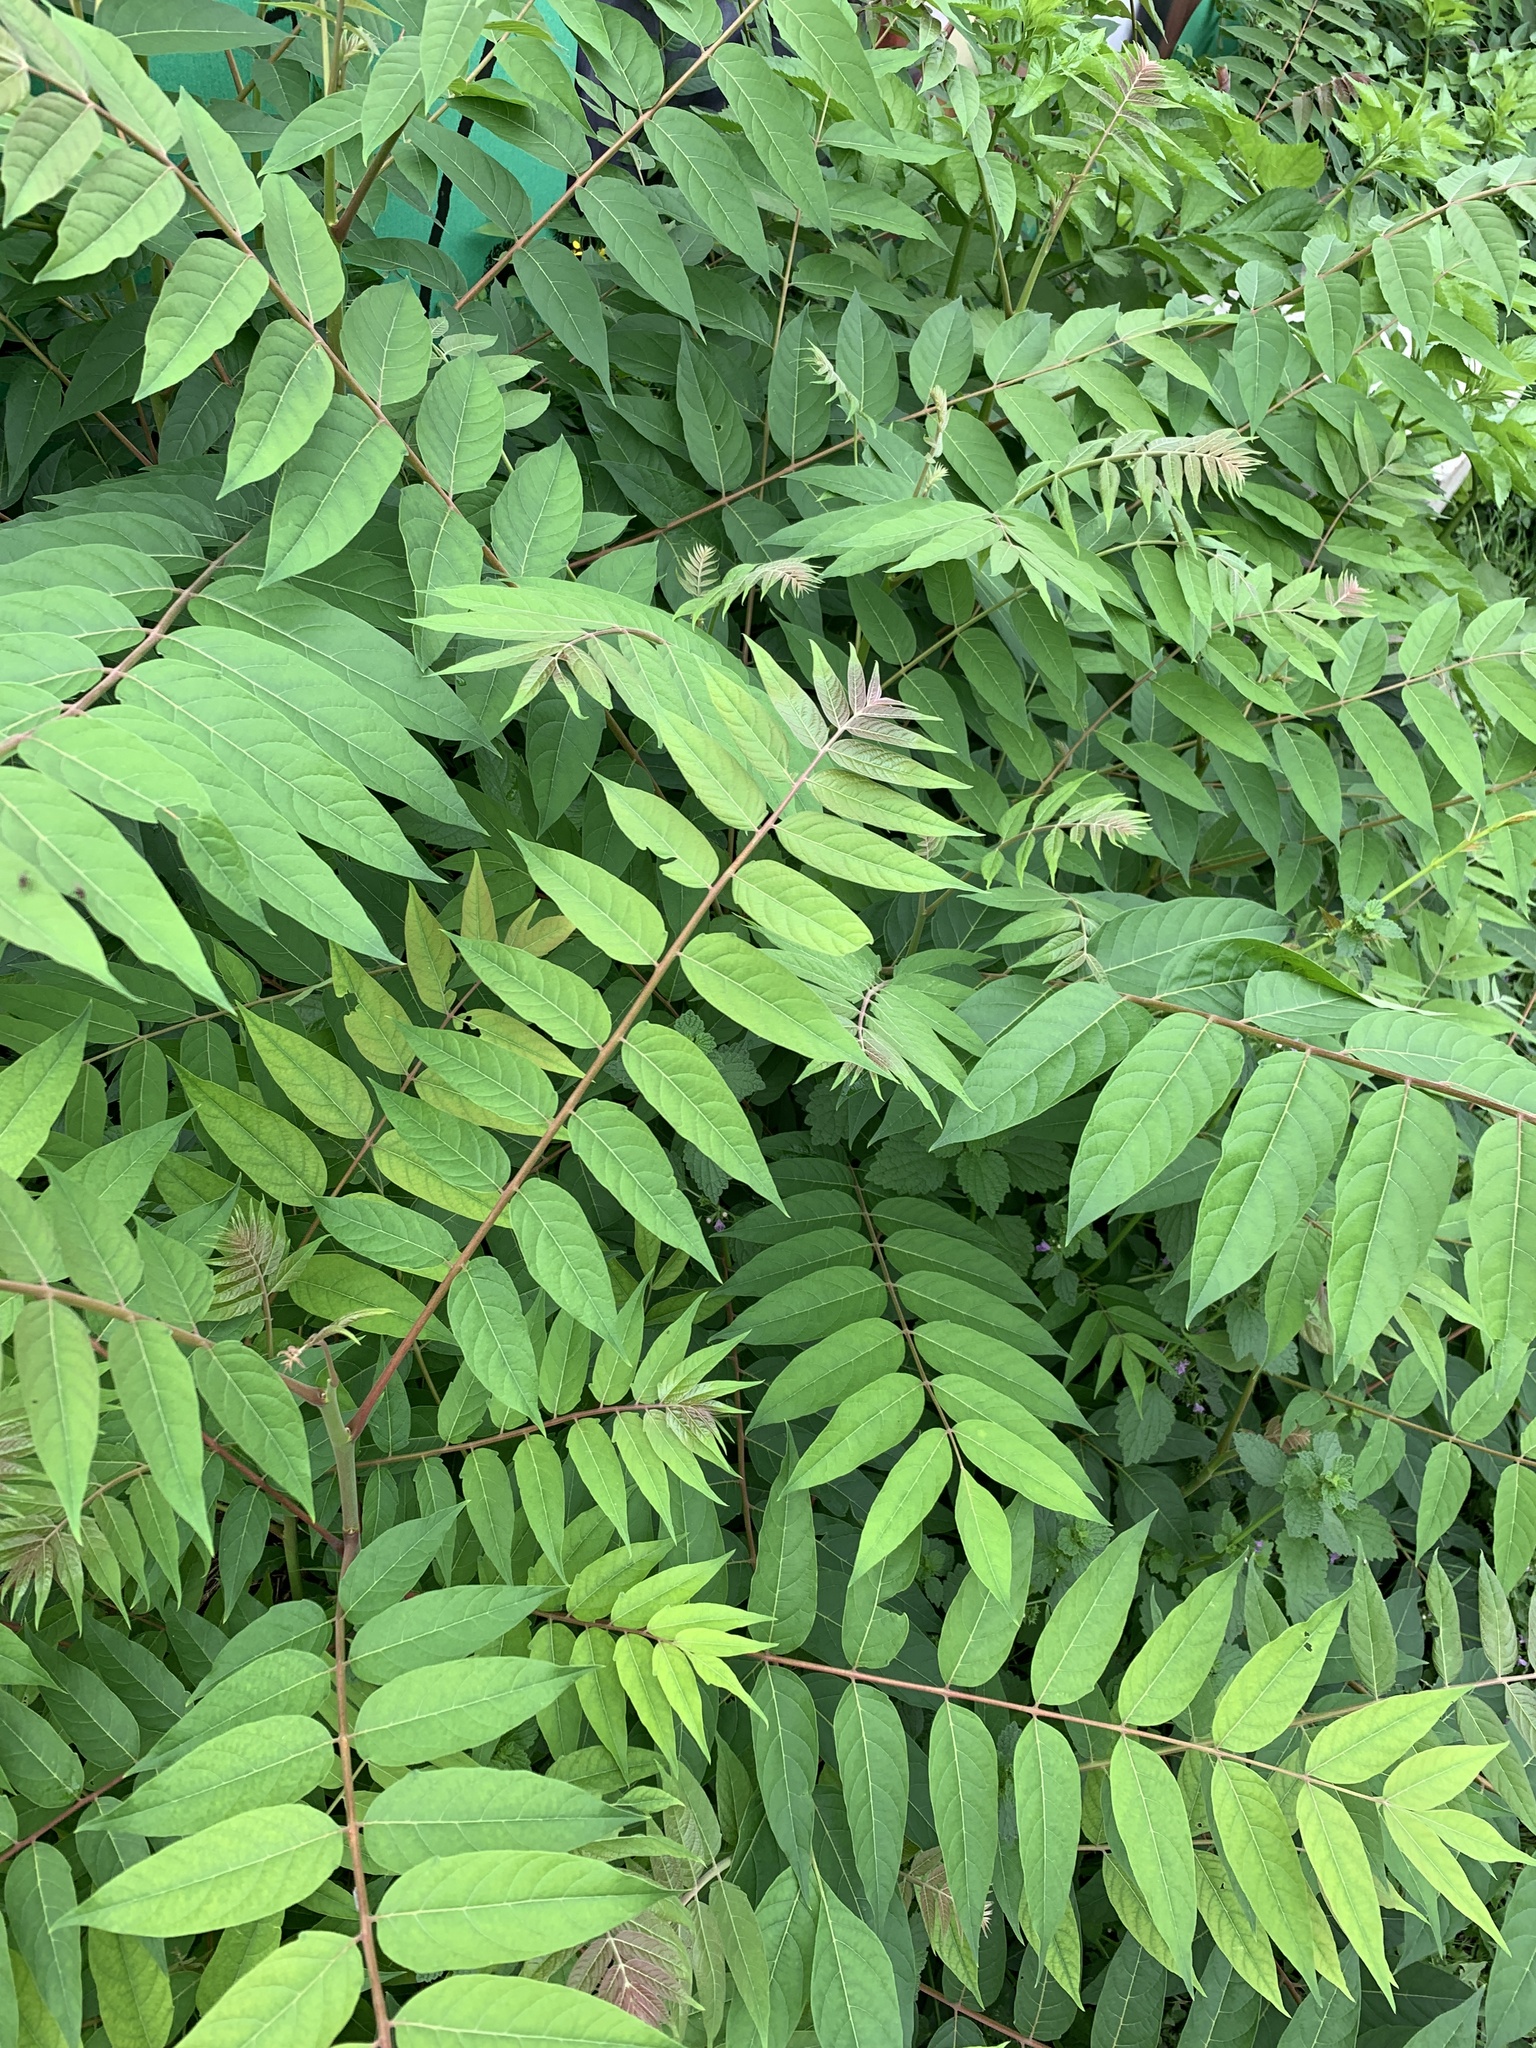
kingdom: Plantae
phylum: Tracheophyta
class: Magnoliopsida
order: Sapindales
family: Simaroubaceae
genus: Ailanthus
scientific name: Ailanthus altissima
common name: Tree-of-heaven
